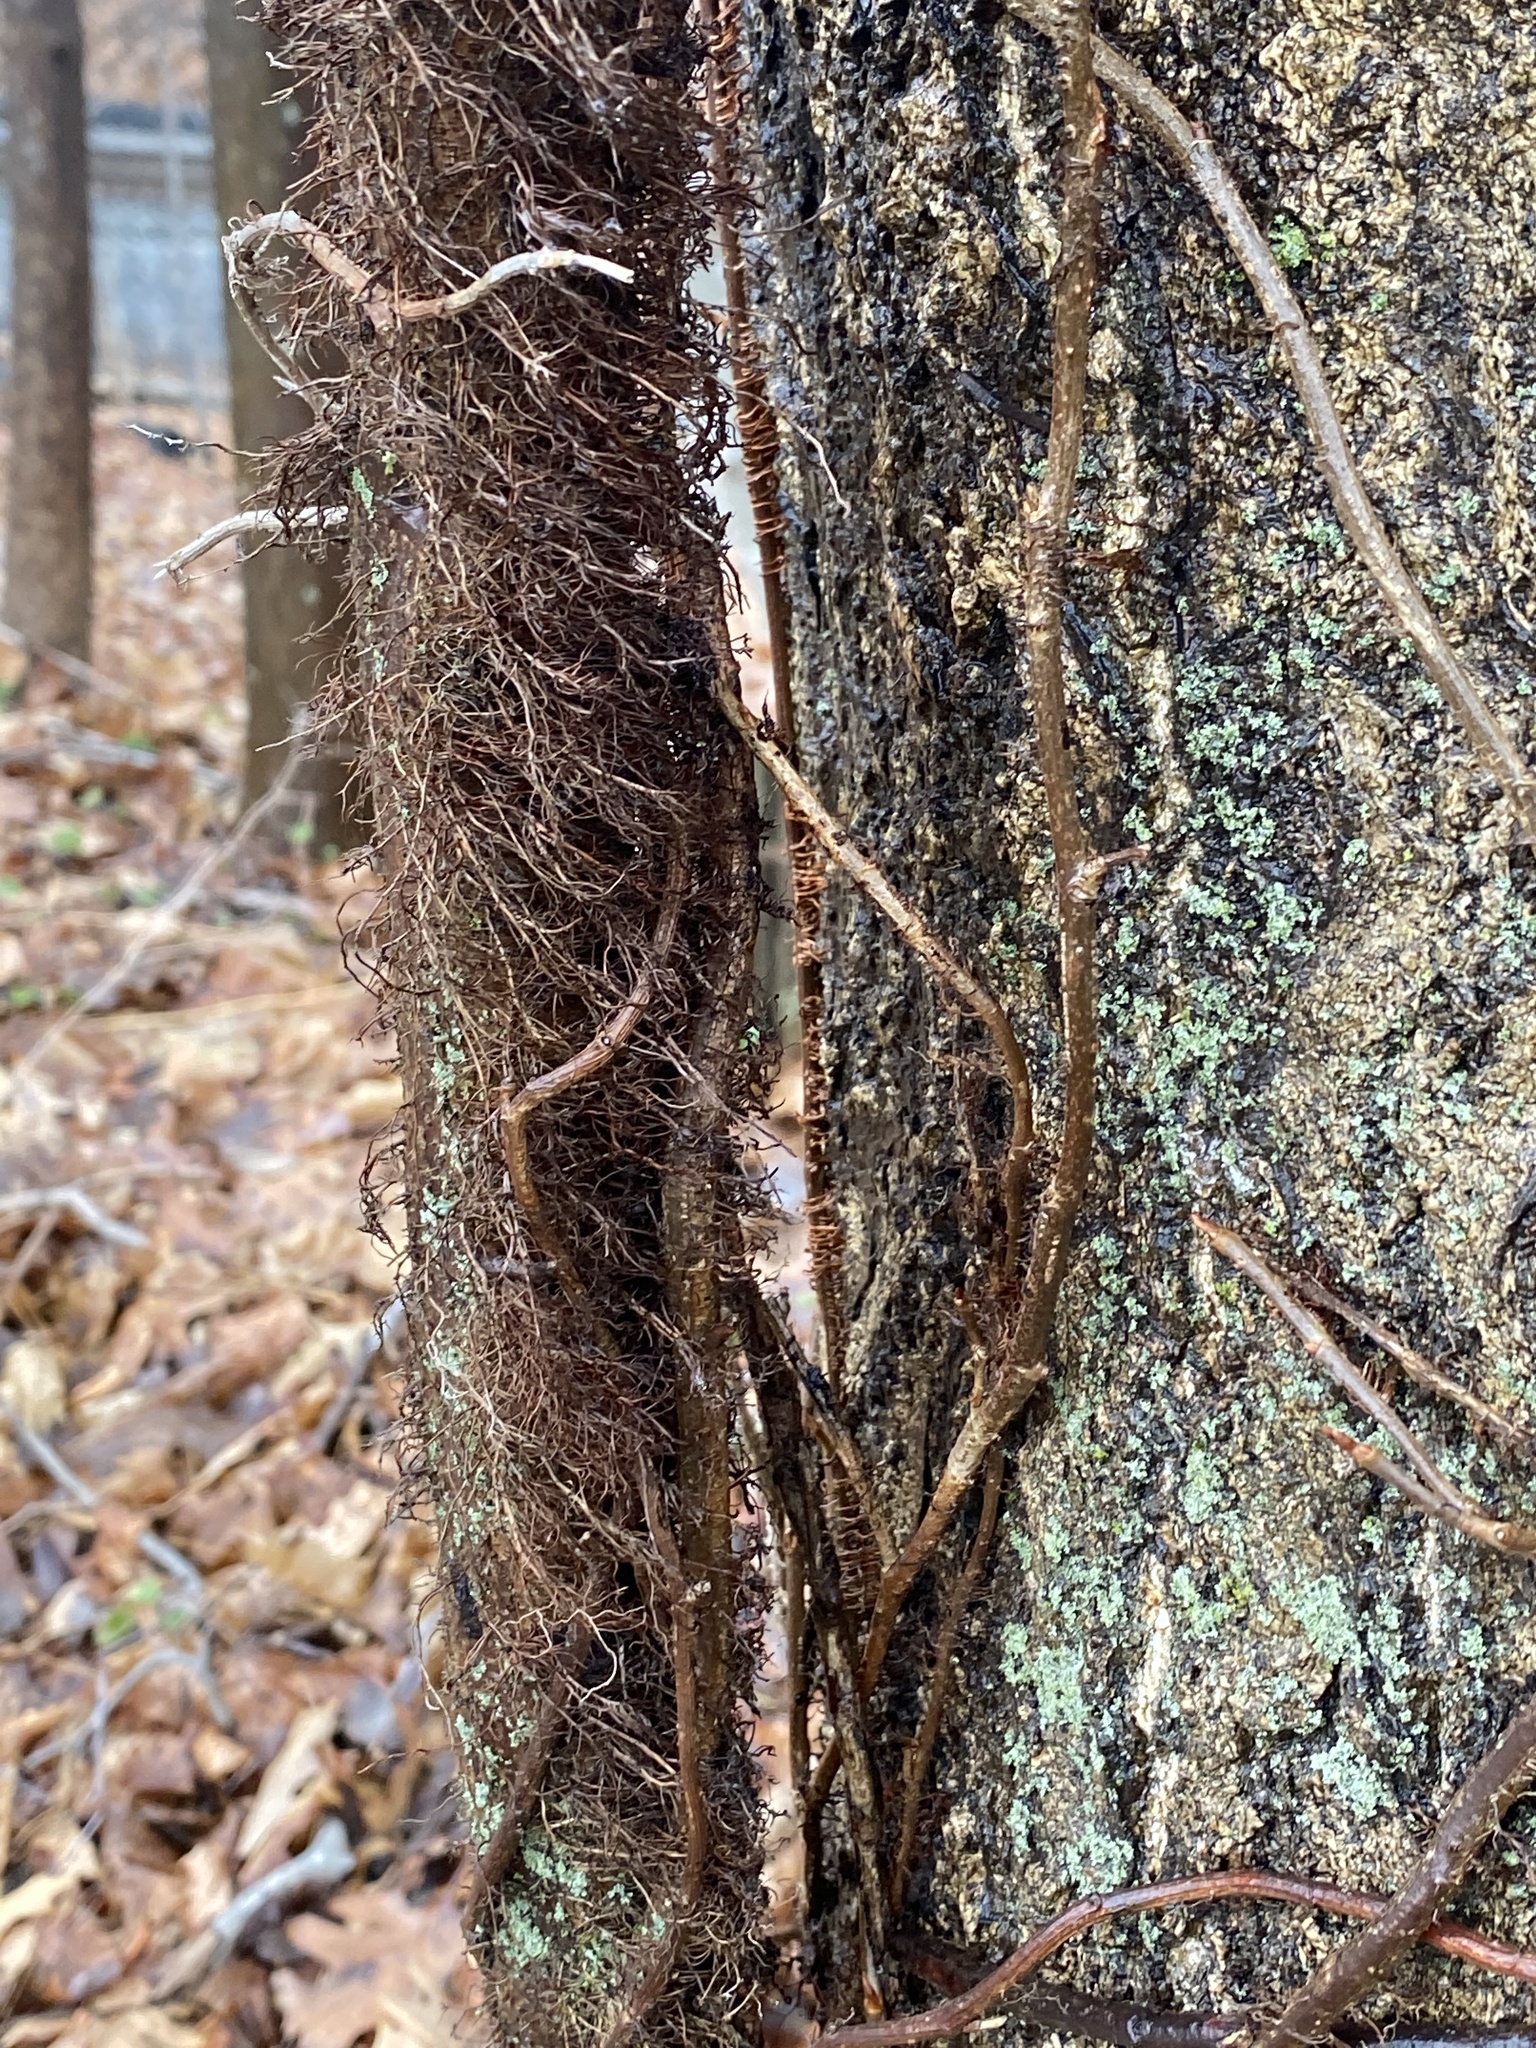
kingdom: Plantae
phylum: Tracheophyta
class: Magnoliopsida
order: Sapindales
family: Anacardiaceae
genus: Toxicodendron
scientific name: Toxicodendron radicans
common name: Poison ivy
